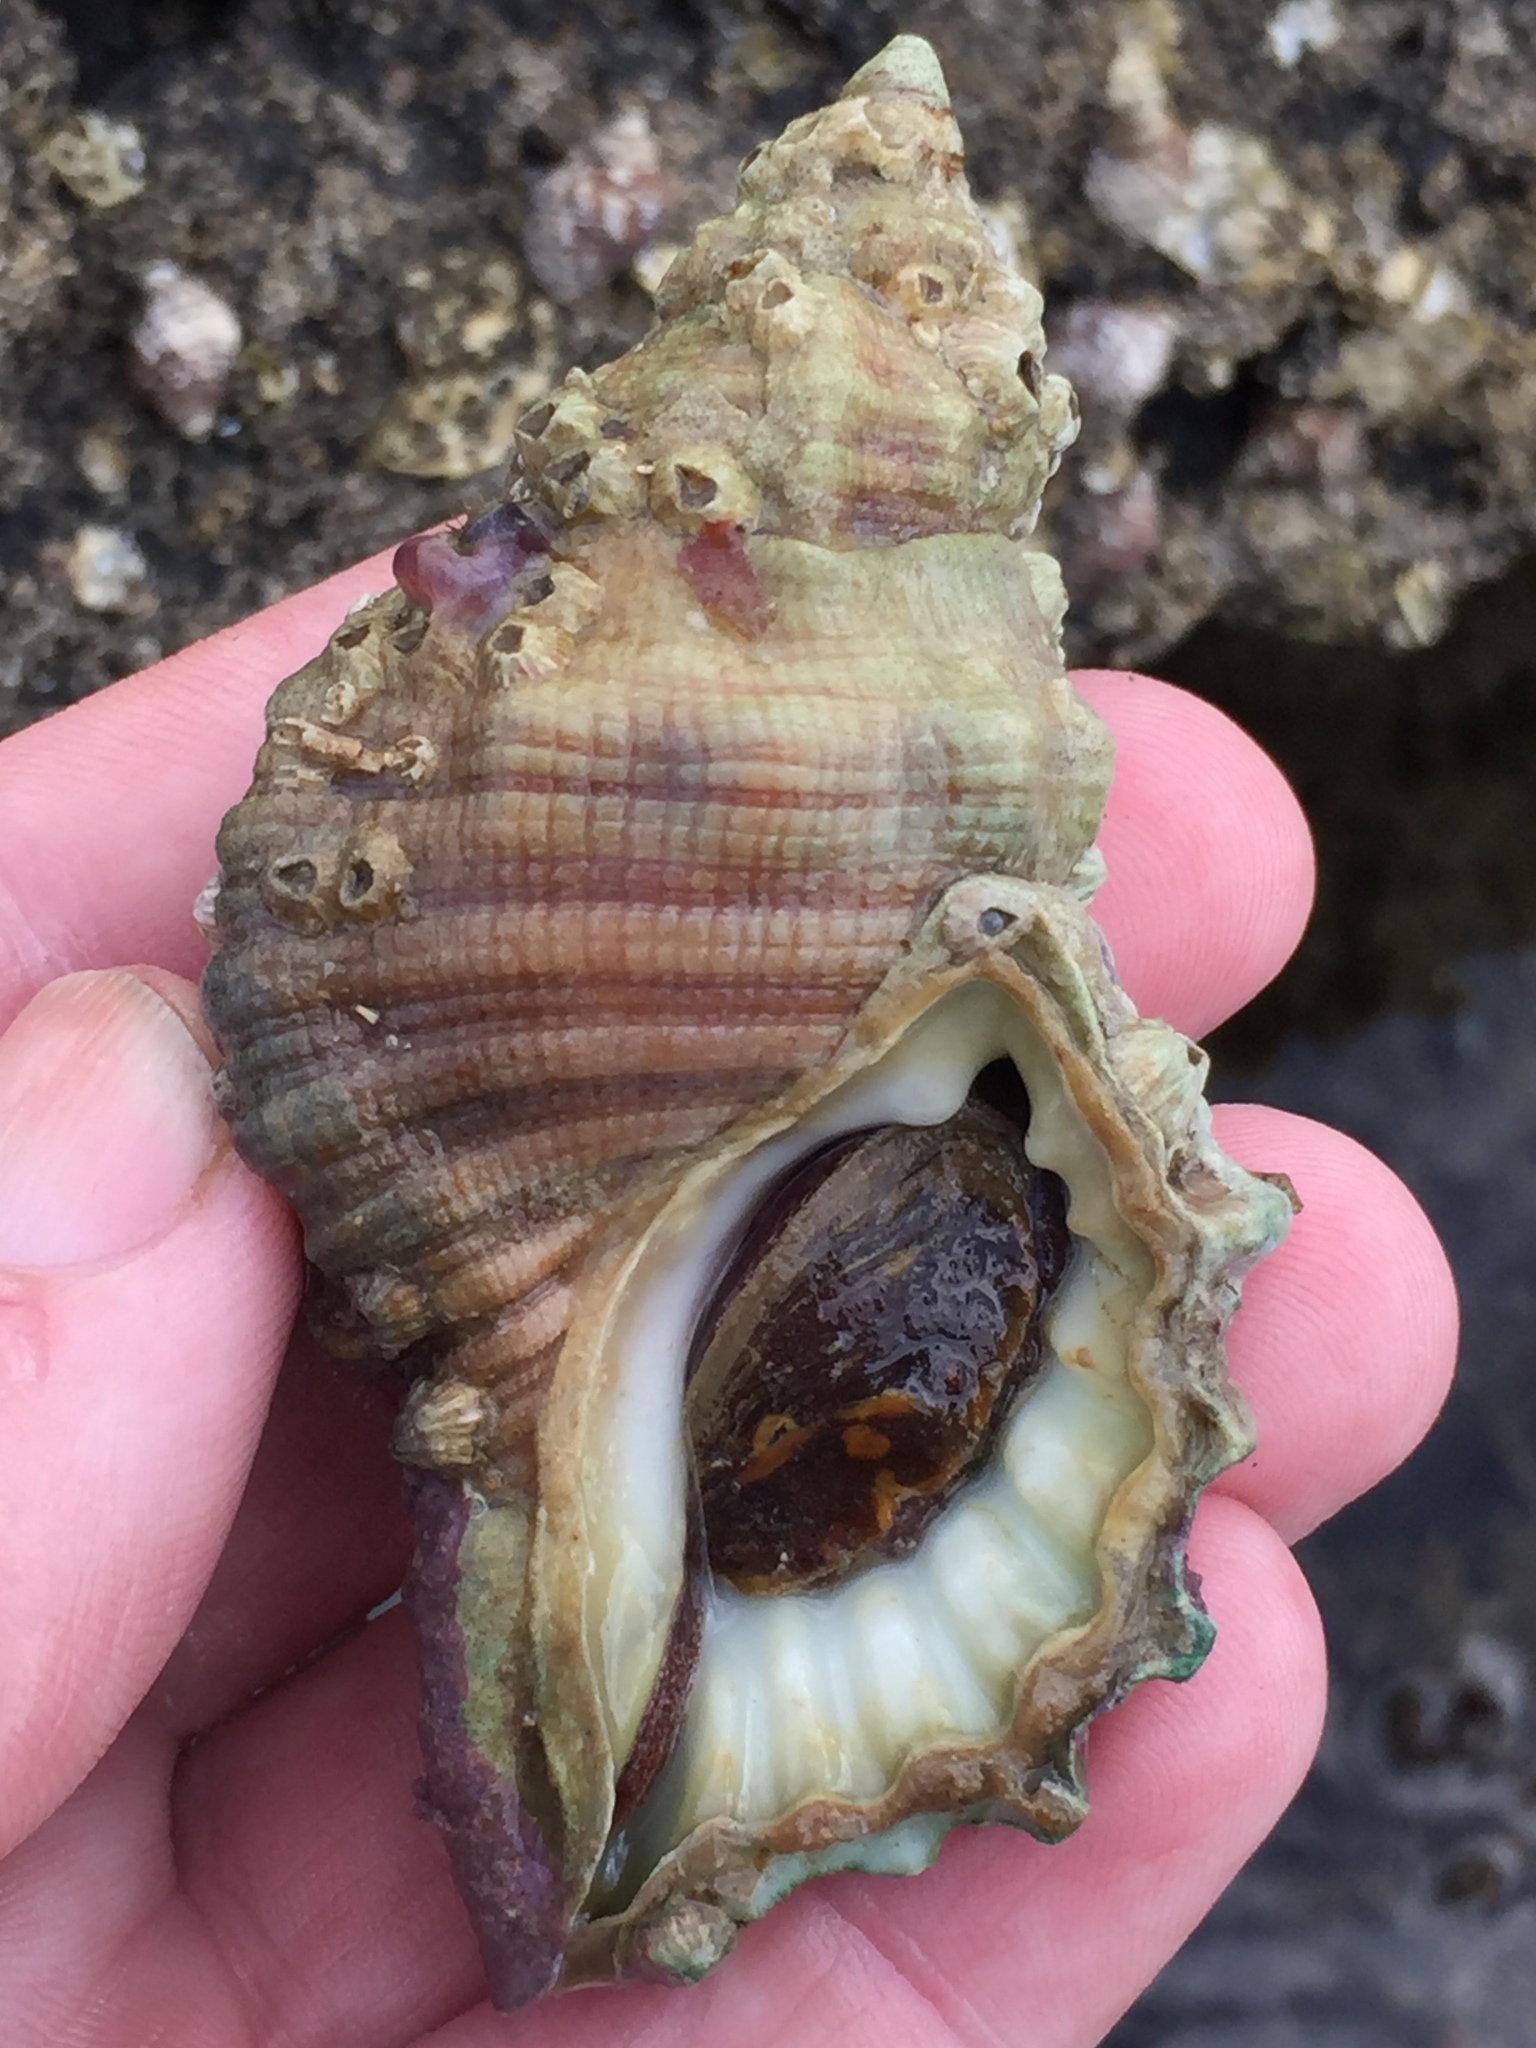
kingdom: Animalia
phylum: Mollusca
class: Gastropoda
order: Littorinimorpha
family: Cymatiidae
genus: Cabestana
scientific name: Cabestana spengleri
